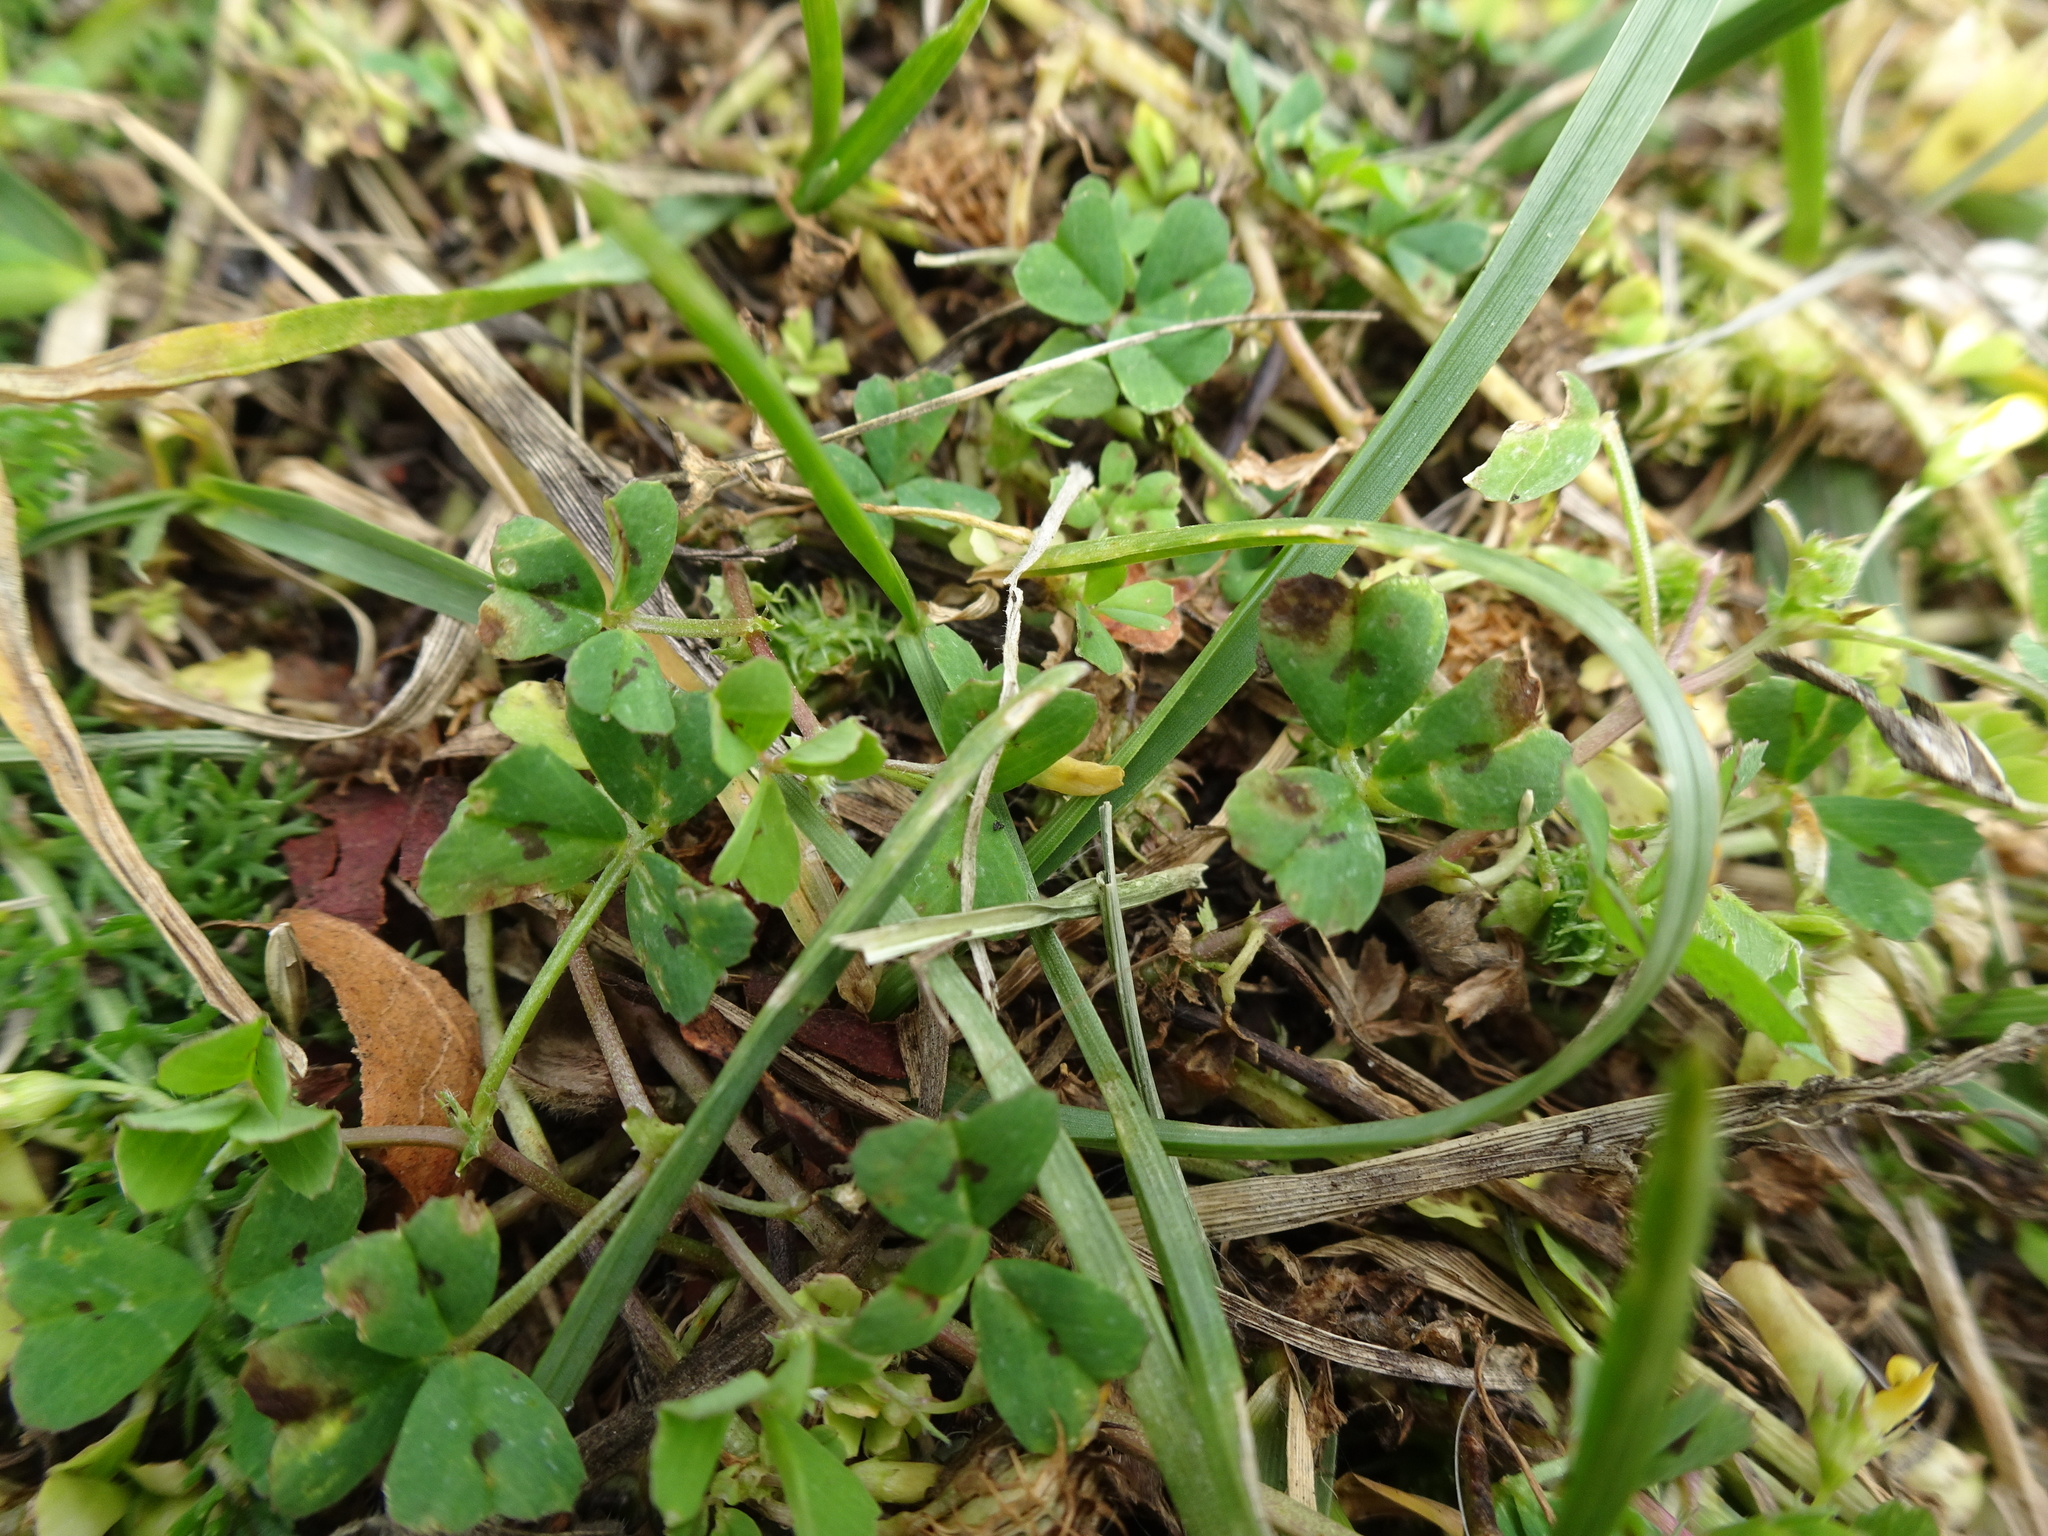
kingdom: Plantae
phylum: Tracheophyta
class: Magnoliopsida
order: Fabales
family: Fabaceae
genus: Medicago
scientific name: Medicago arabica
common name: Spotted medick
